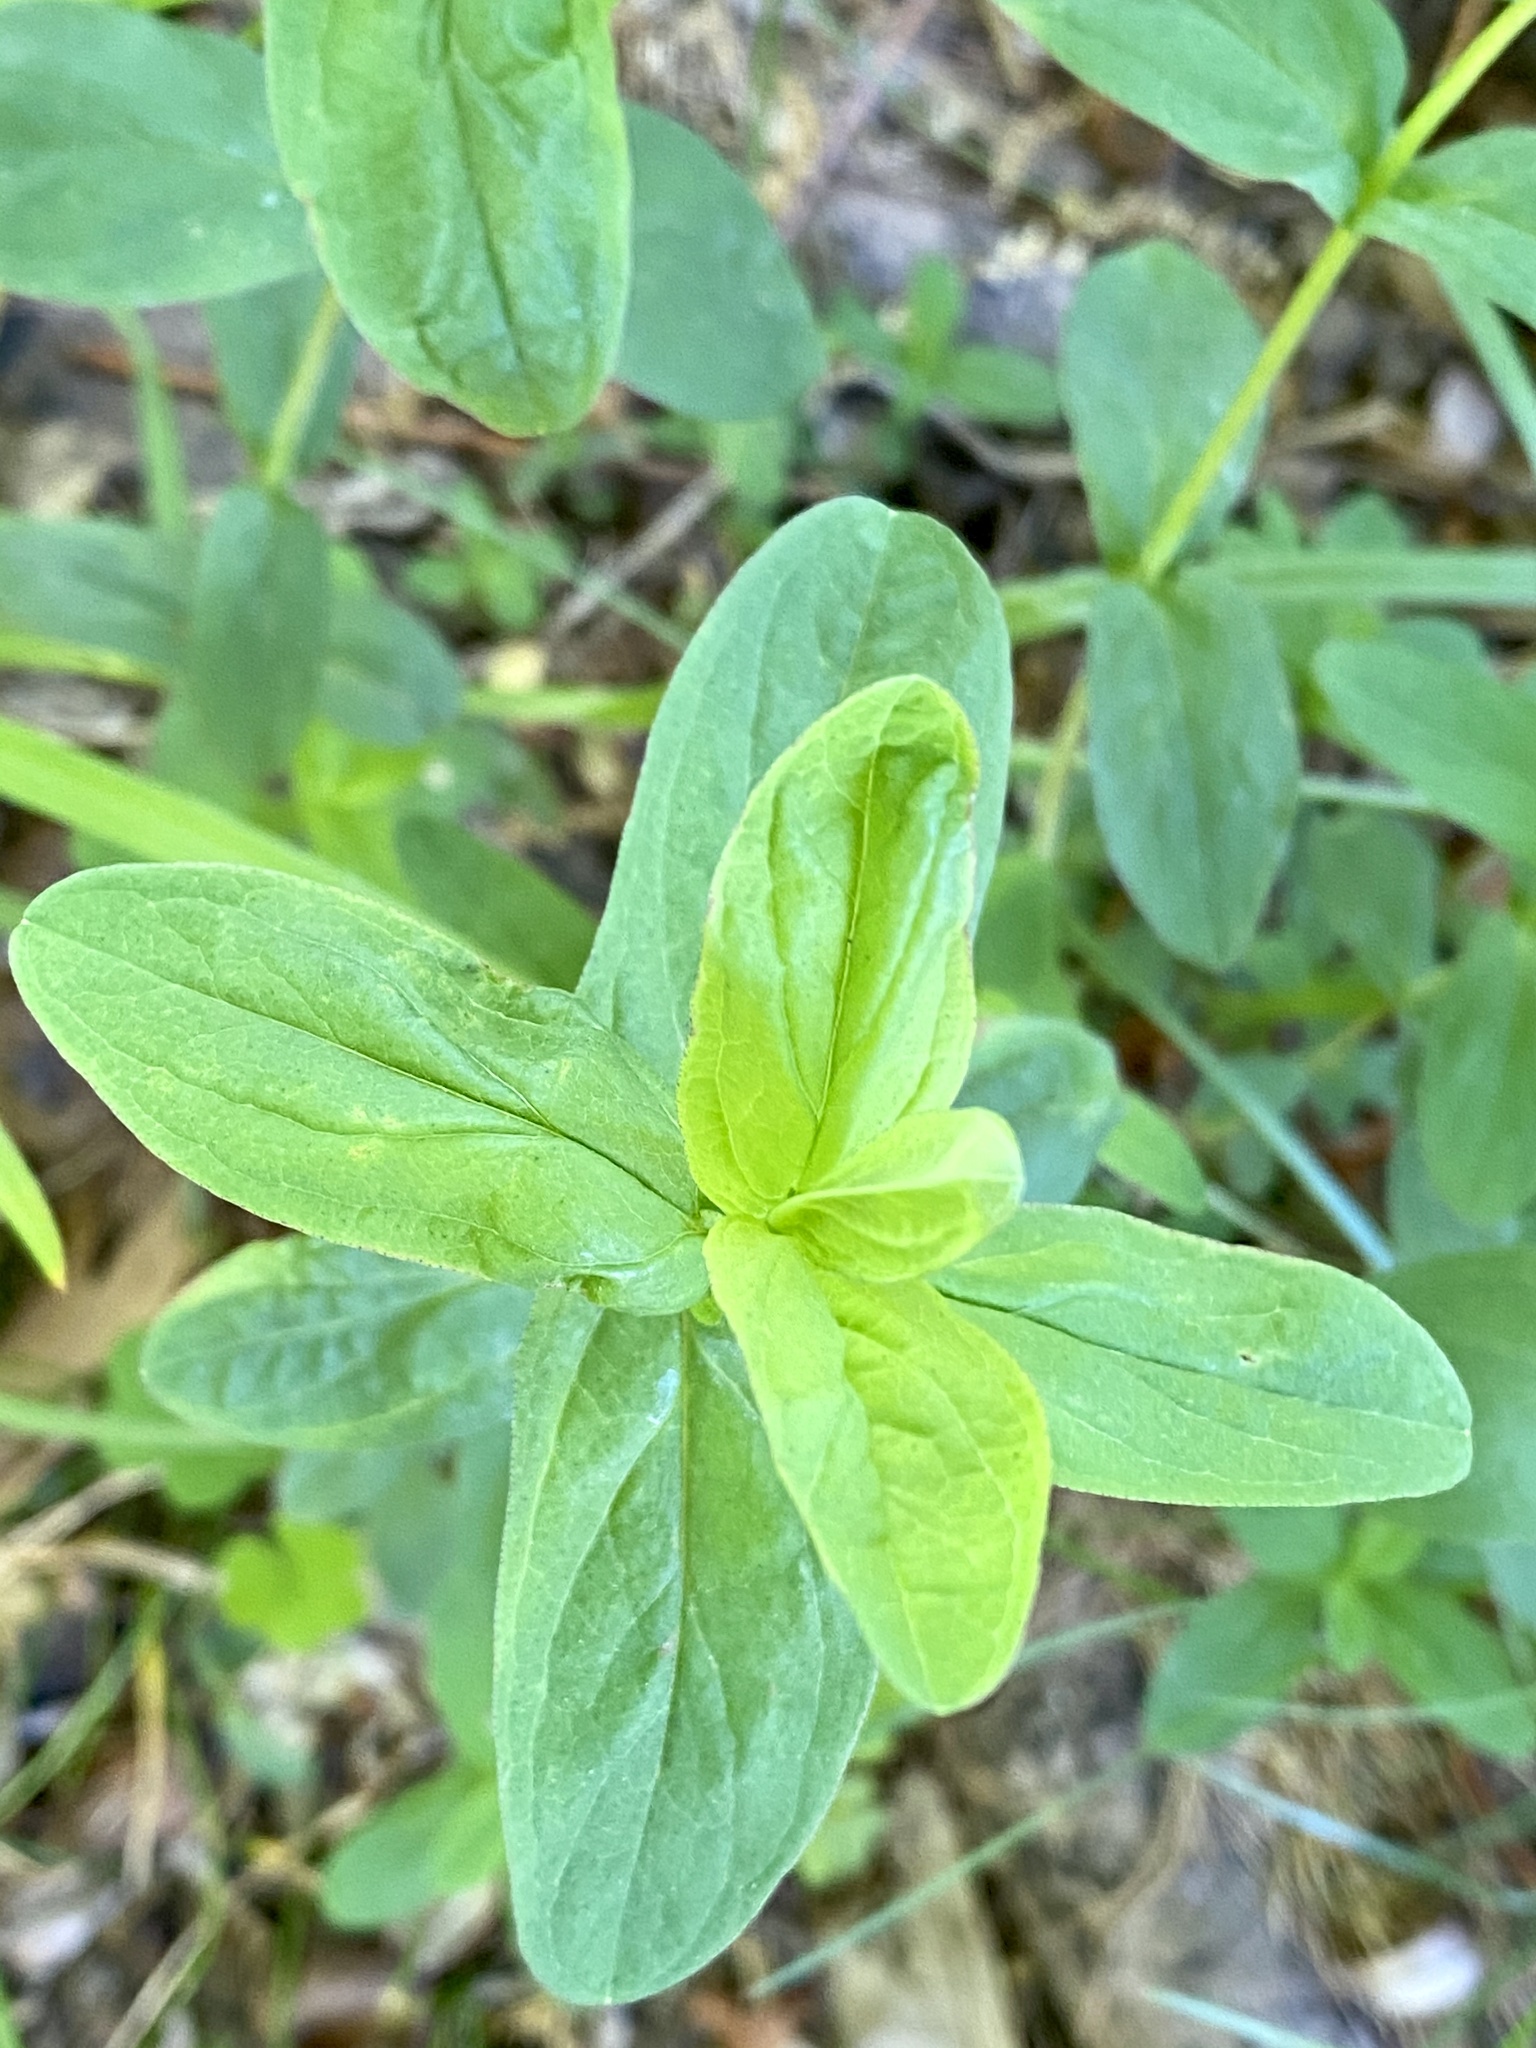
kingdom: Plantae
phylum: Tracheophyta
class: Magnoliopsida
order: Malpighiales
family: Hypericaceae
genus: Hypericum
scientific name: Hypericum punctatum
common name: Spotted st. john's-wort
